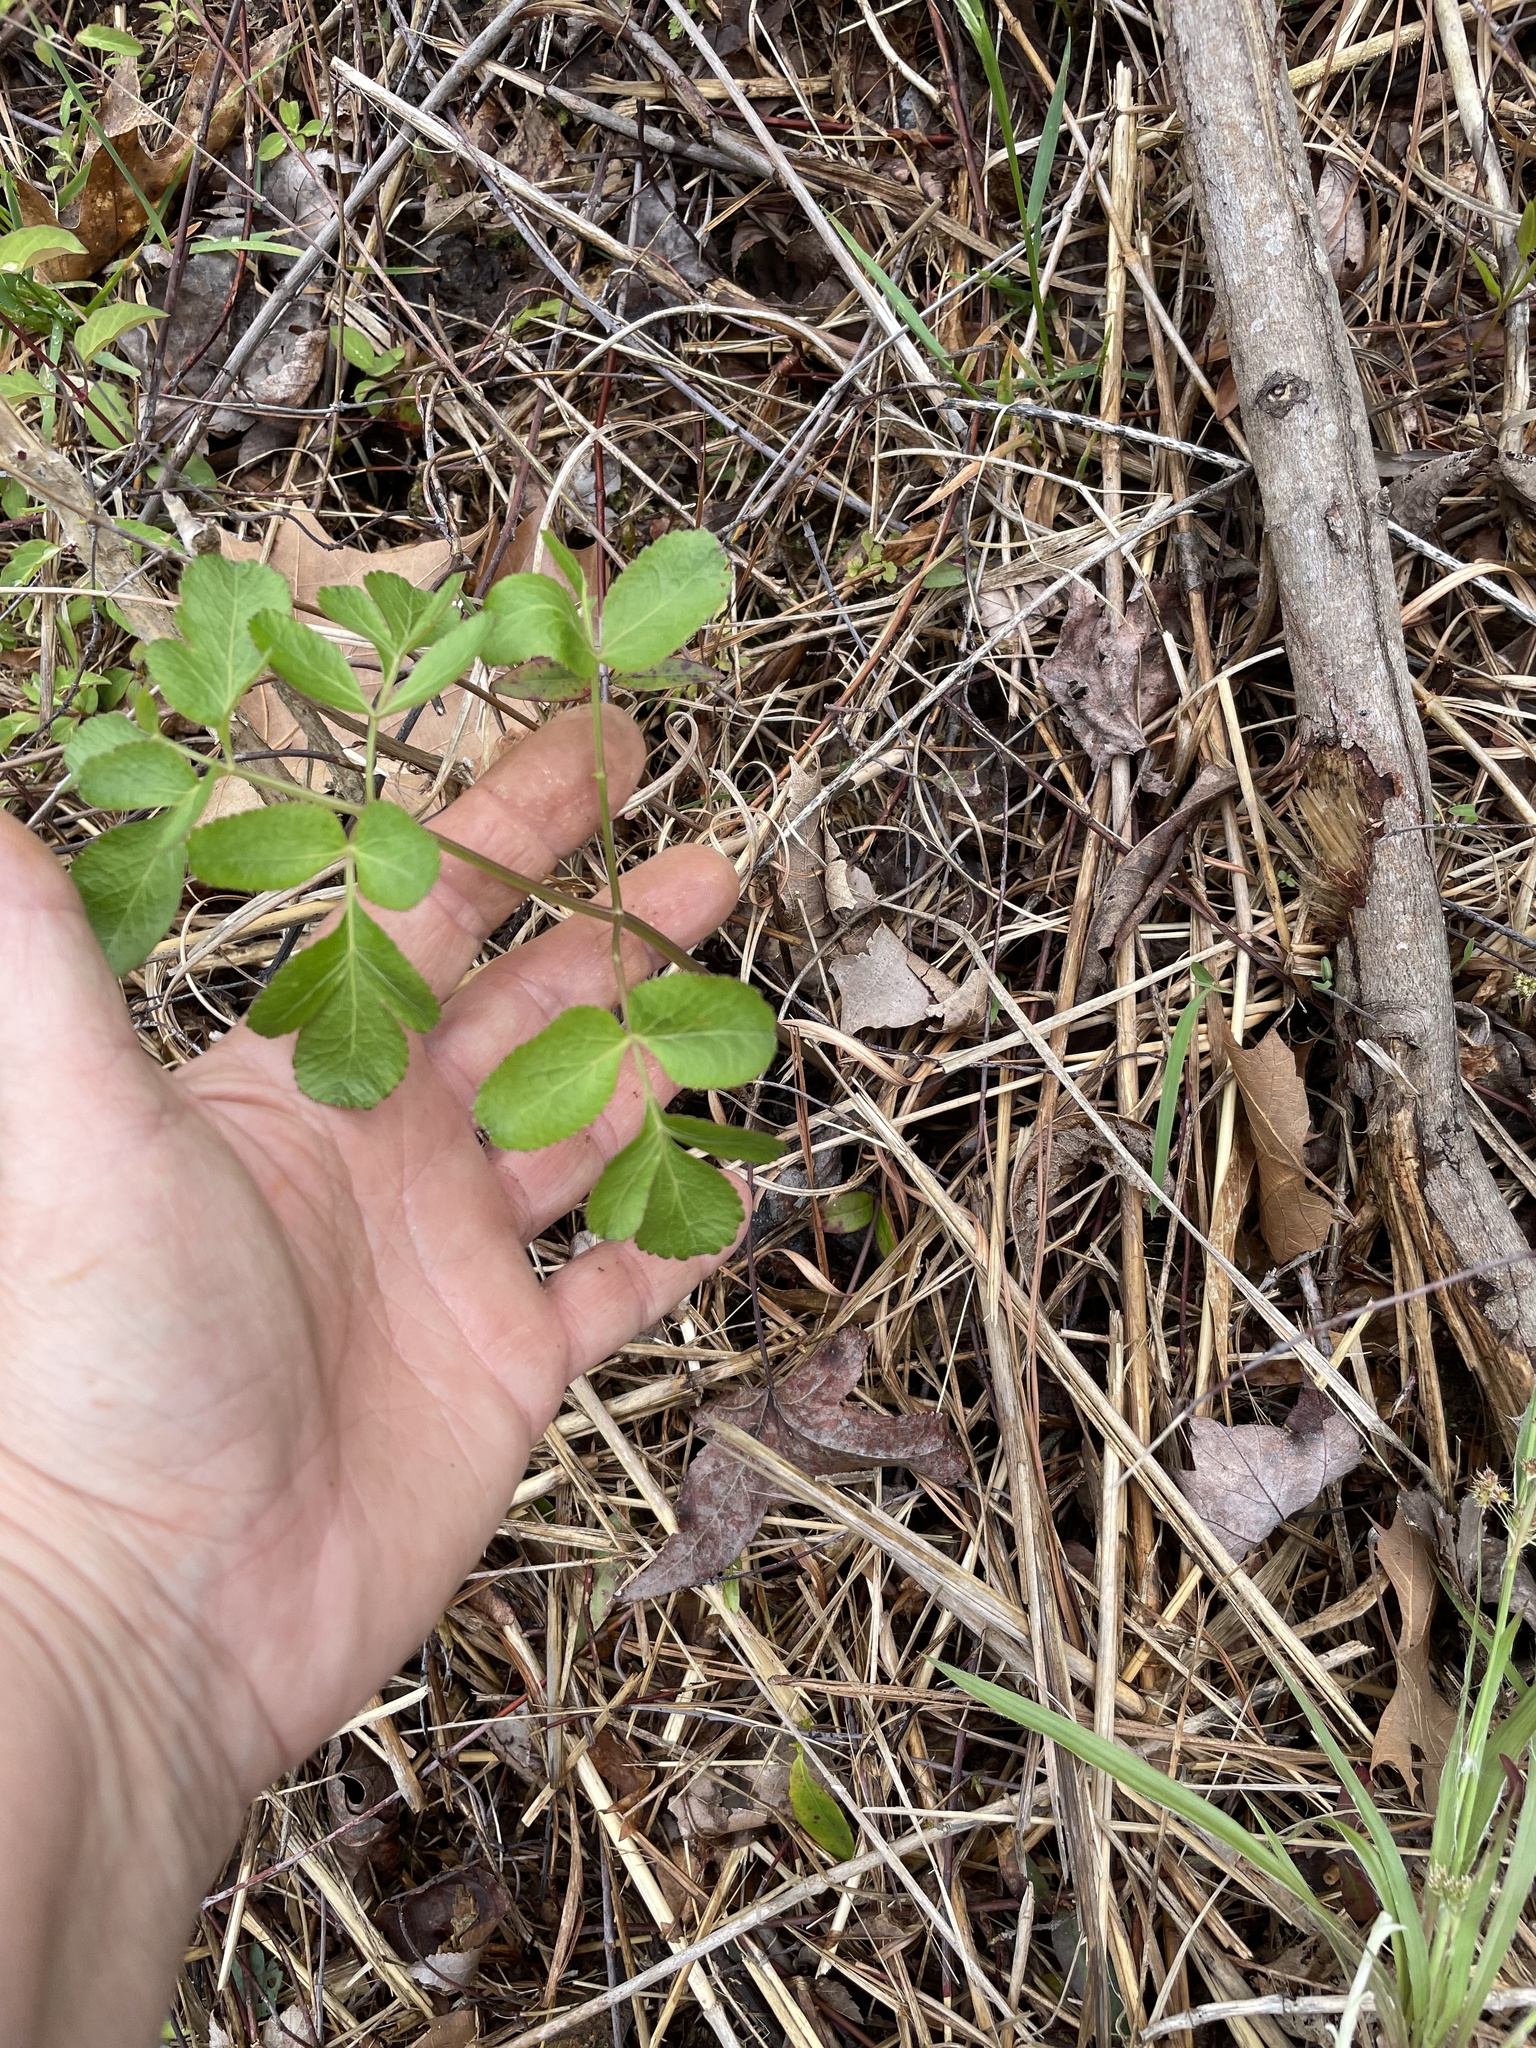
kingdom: Plantae
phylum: Tracheophyta
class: Magnoliopsida
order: Apiales
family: Apiaceae
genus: Angelica
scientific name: Angelica venenosa
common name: Hairy angelica
